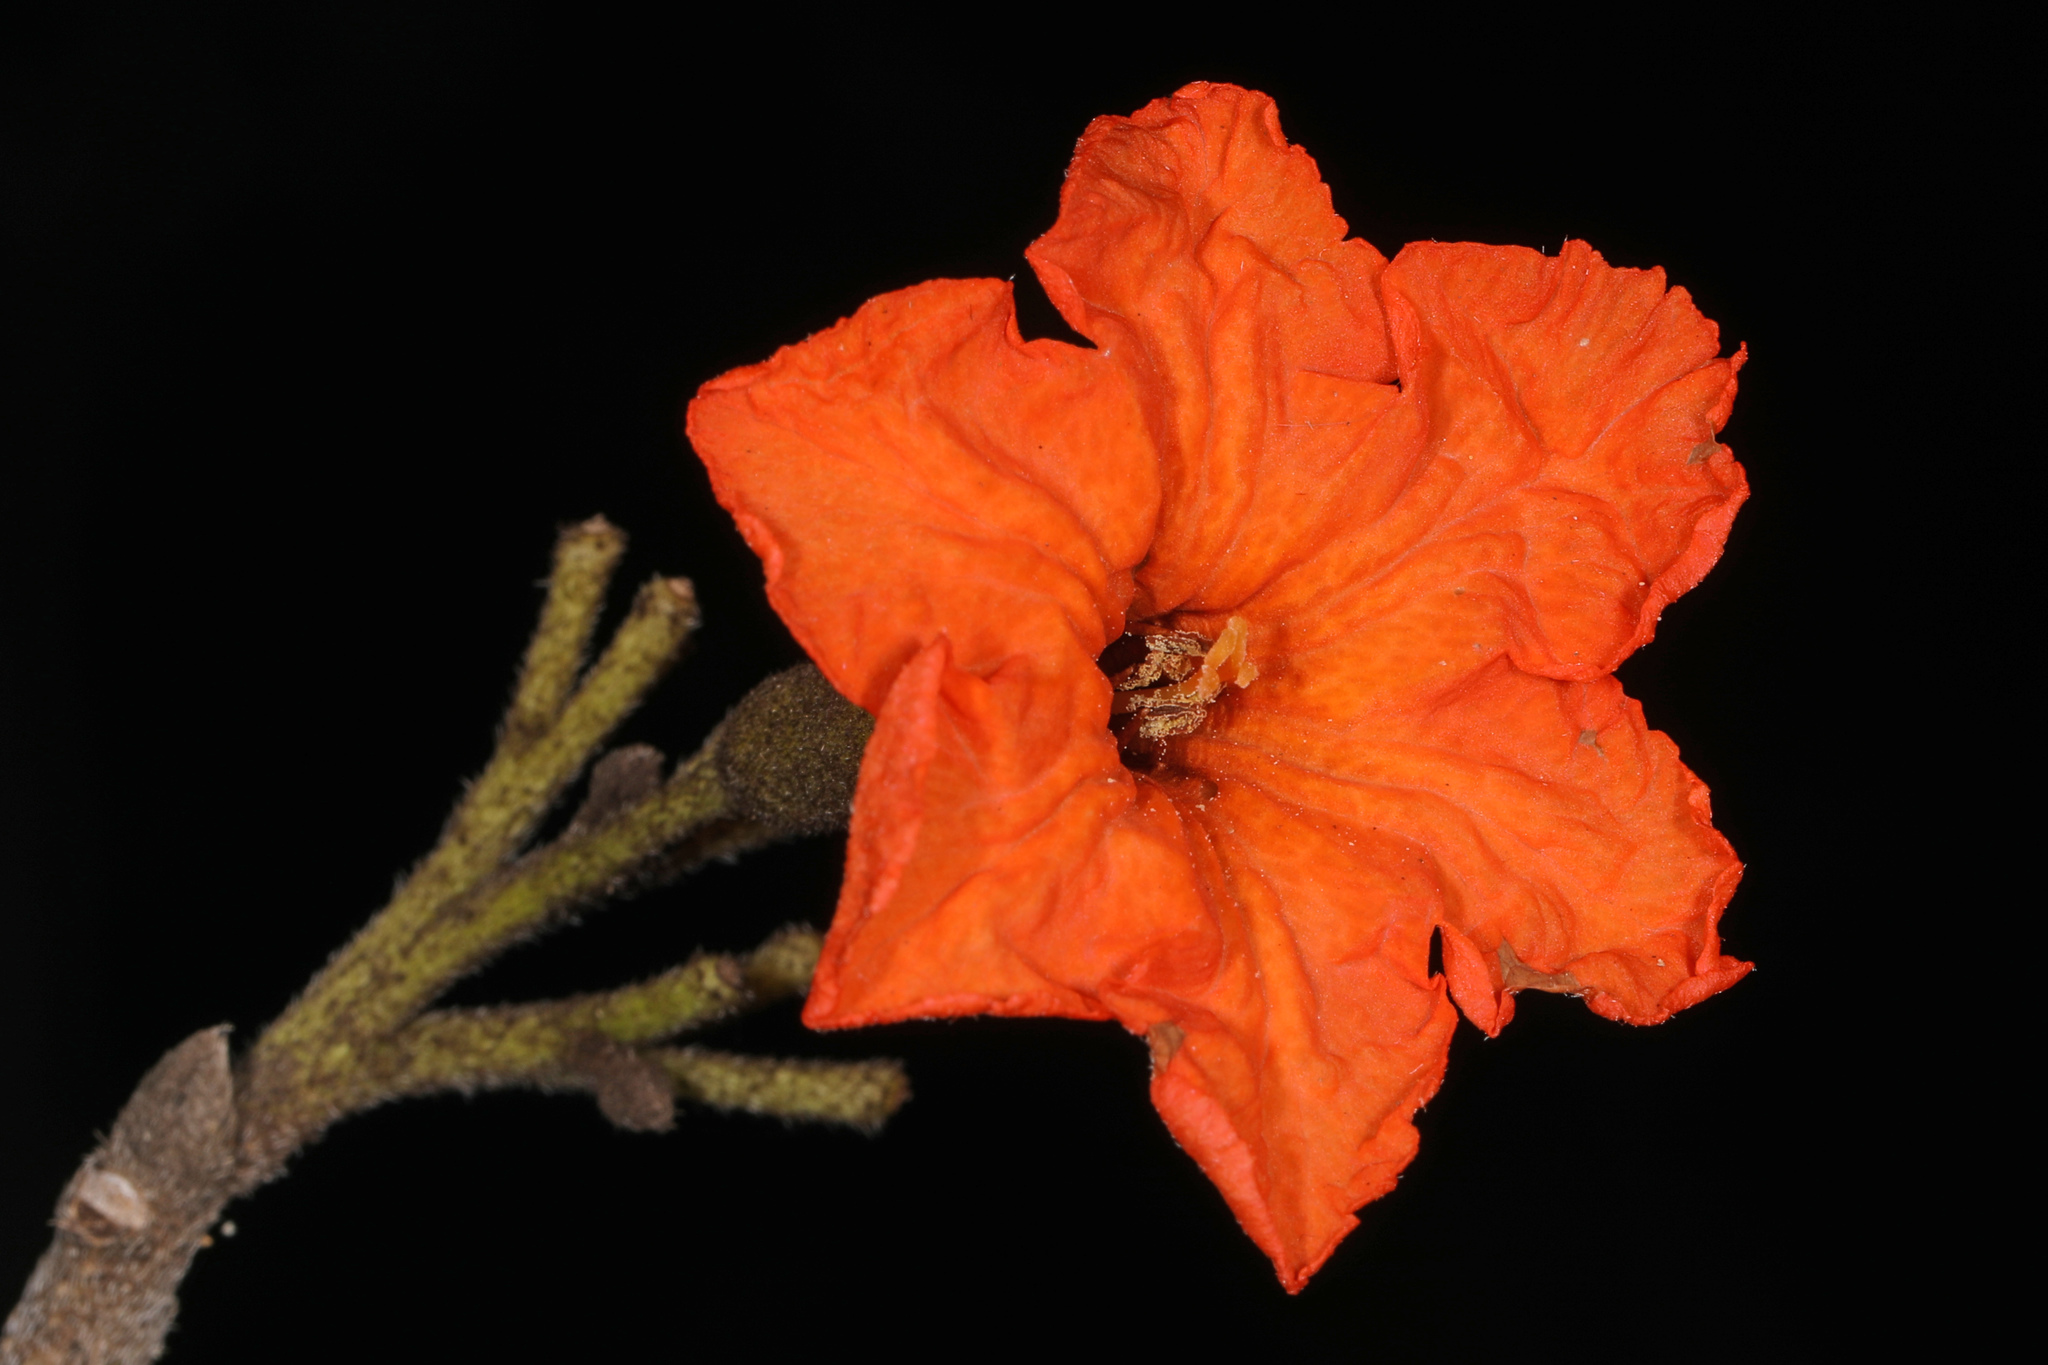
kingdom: Plantae
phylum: Tracheophyta
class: Magnoliopsida
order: Boraginales
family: Cordiaceae
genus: Cordia
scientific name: Cordia sebestena
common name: Largeleaf geigertree
